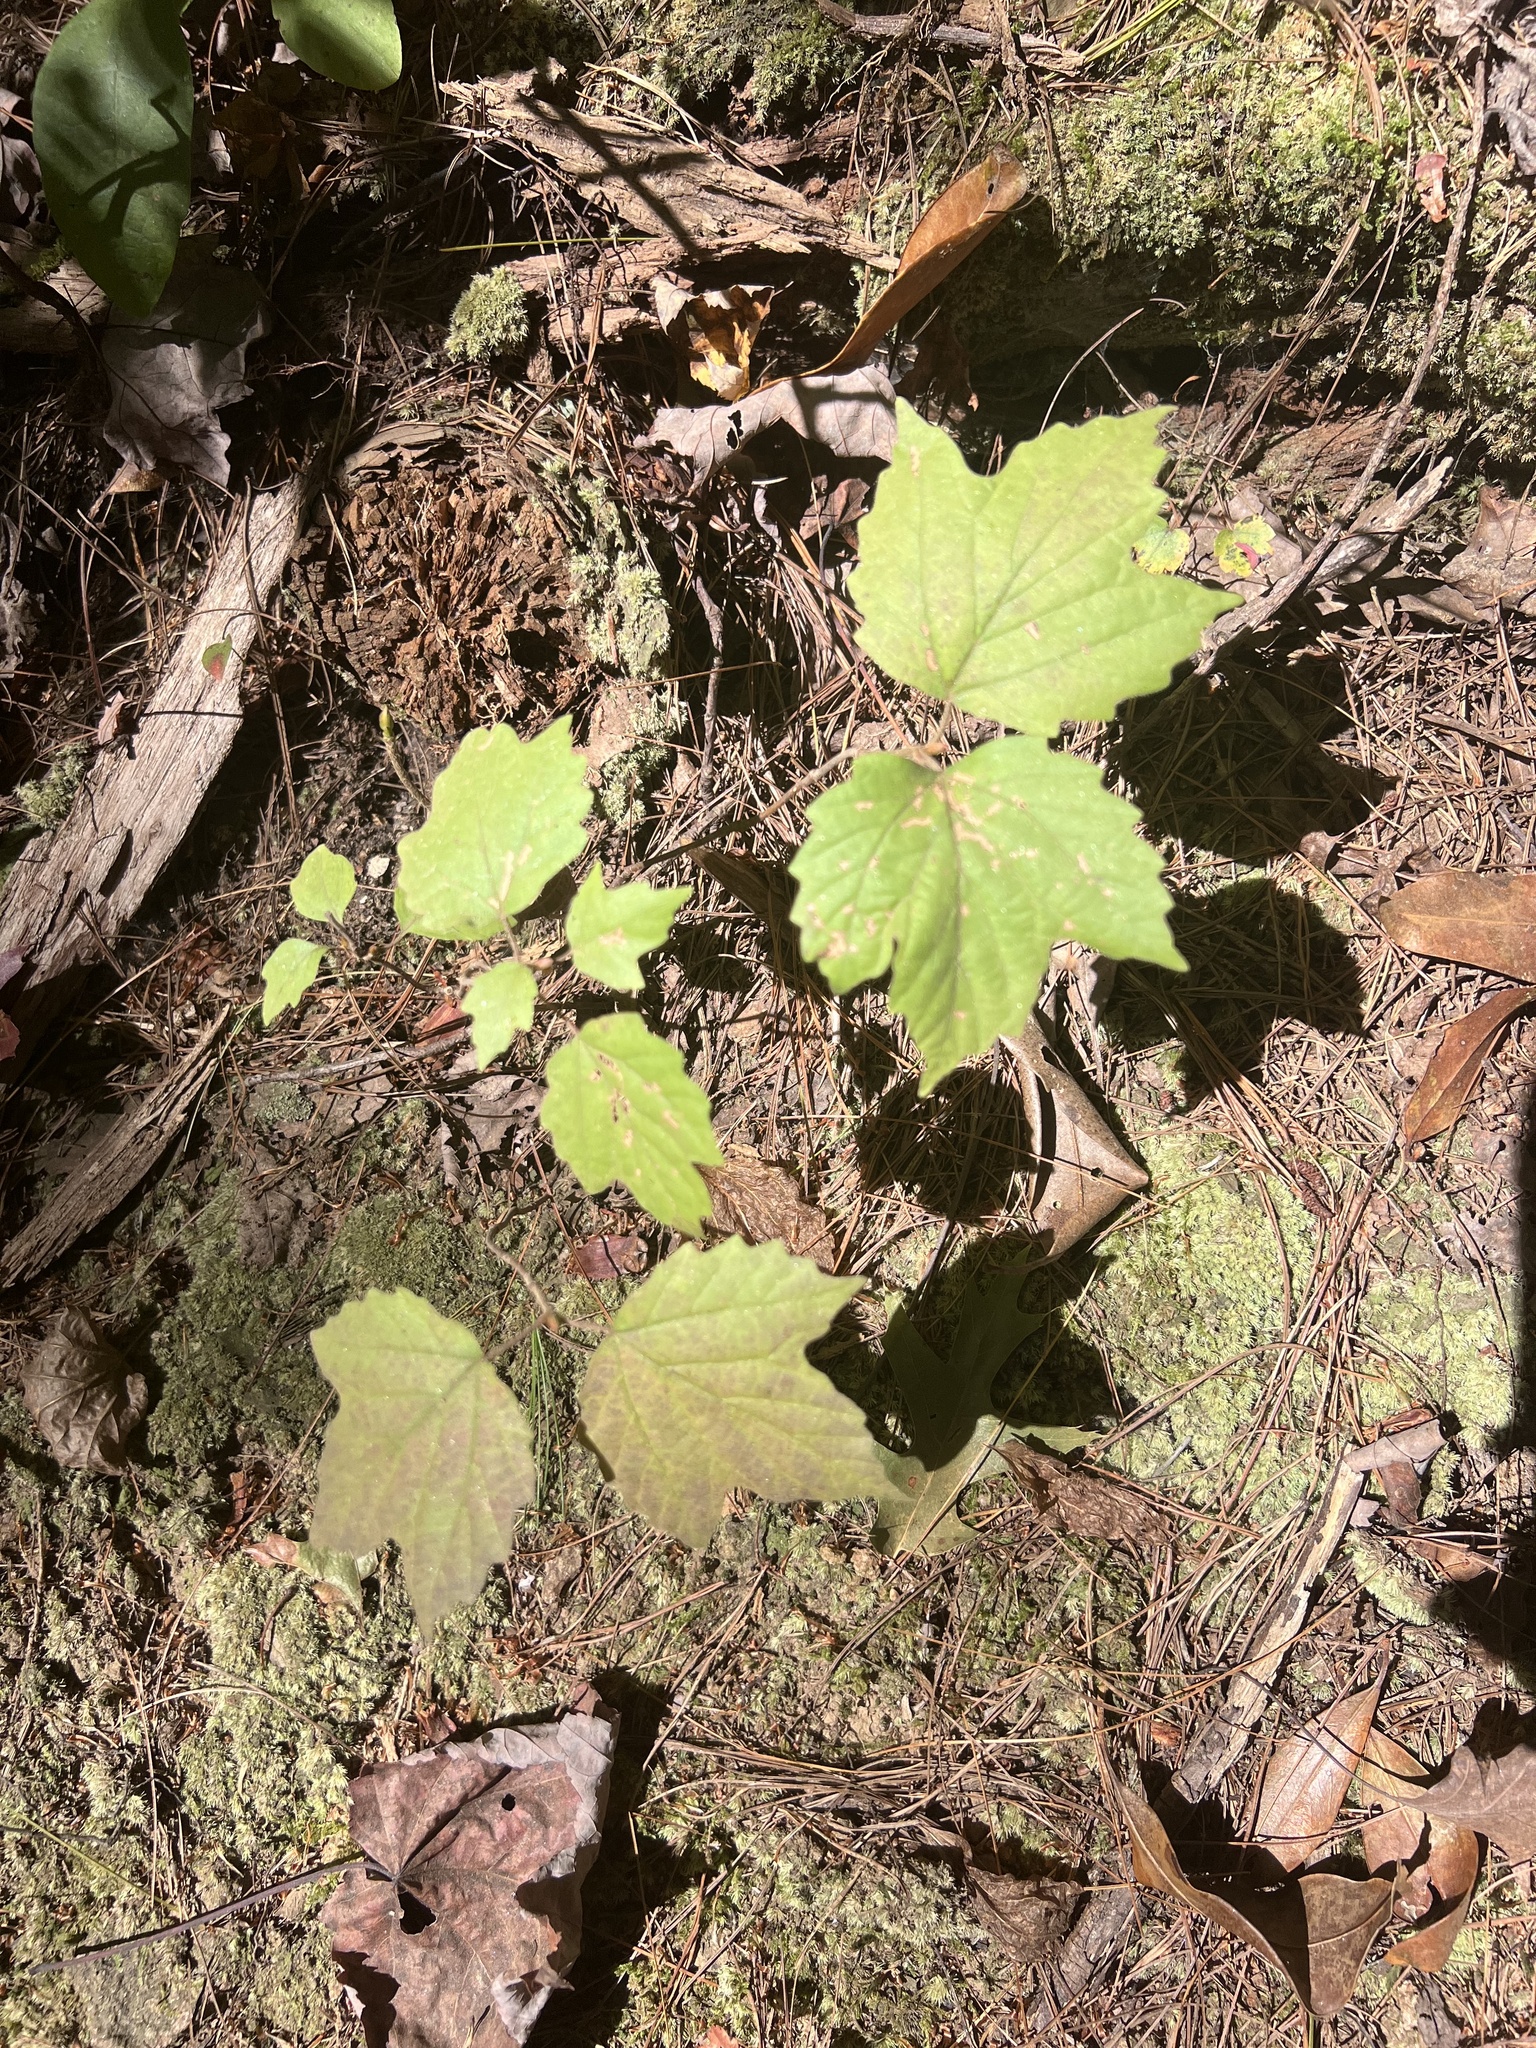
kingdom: Plantae
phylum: Tracheophyta
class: Magnoliopsida
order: Dipsacales
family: Viburnaceae
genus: Viburnum
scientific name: Viburnum acerifolium
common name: Dockmackie
